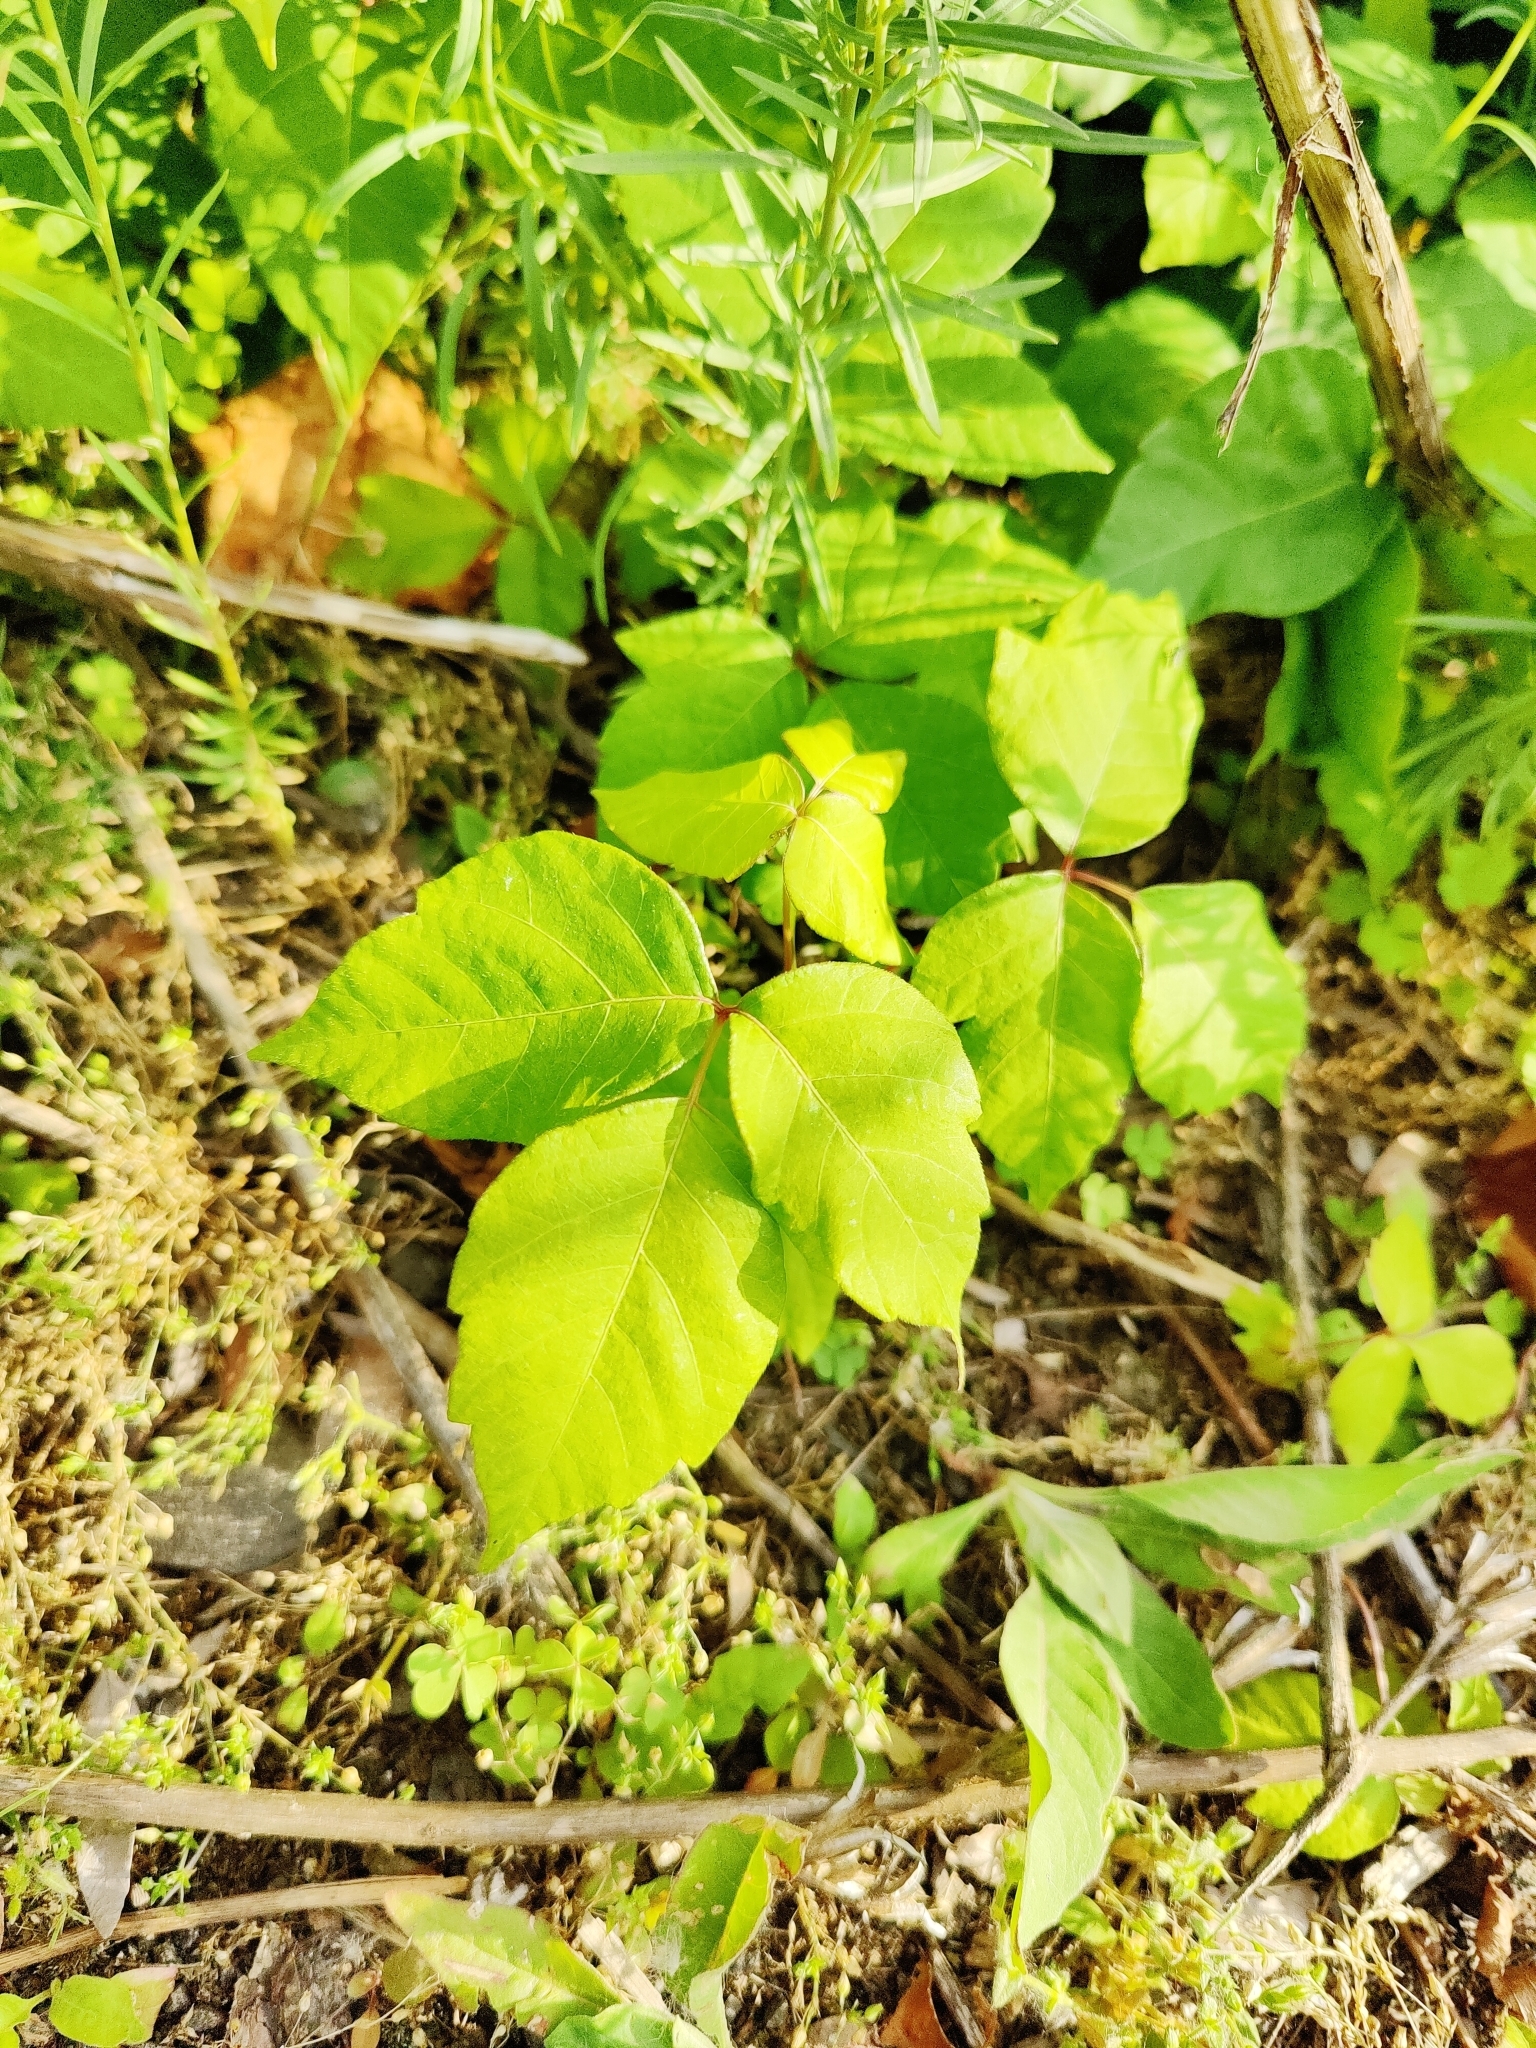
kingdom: Plantae
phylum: Tracheophyta
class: Magnoliopsida
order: Sapindales
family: Anacardiaceae
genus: Toxicodendron
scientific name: Toxicodendron radicans
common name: Poison ivy
